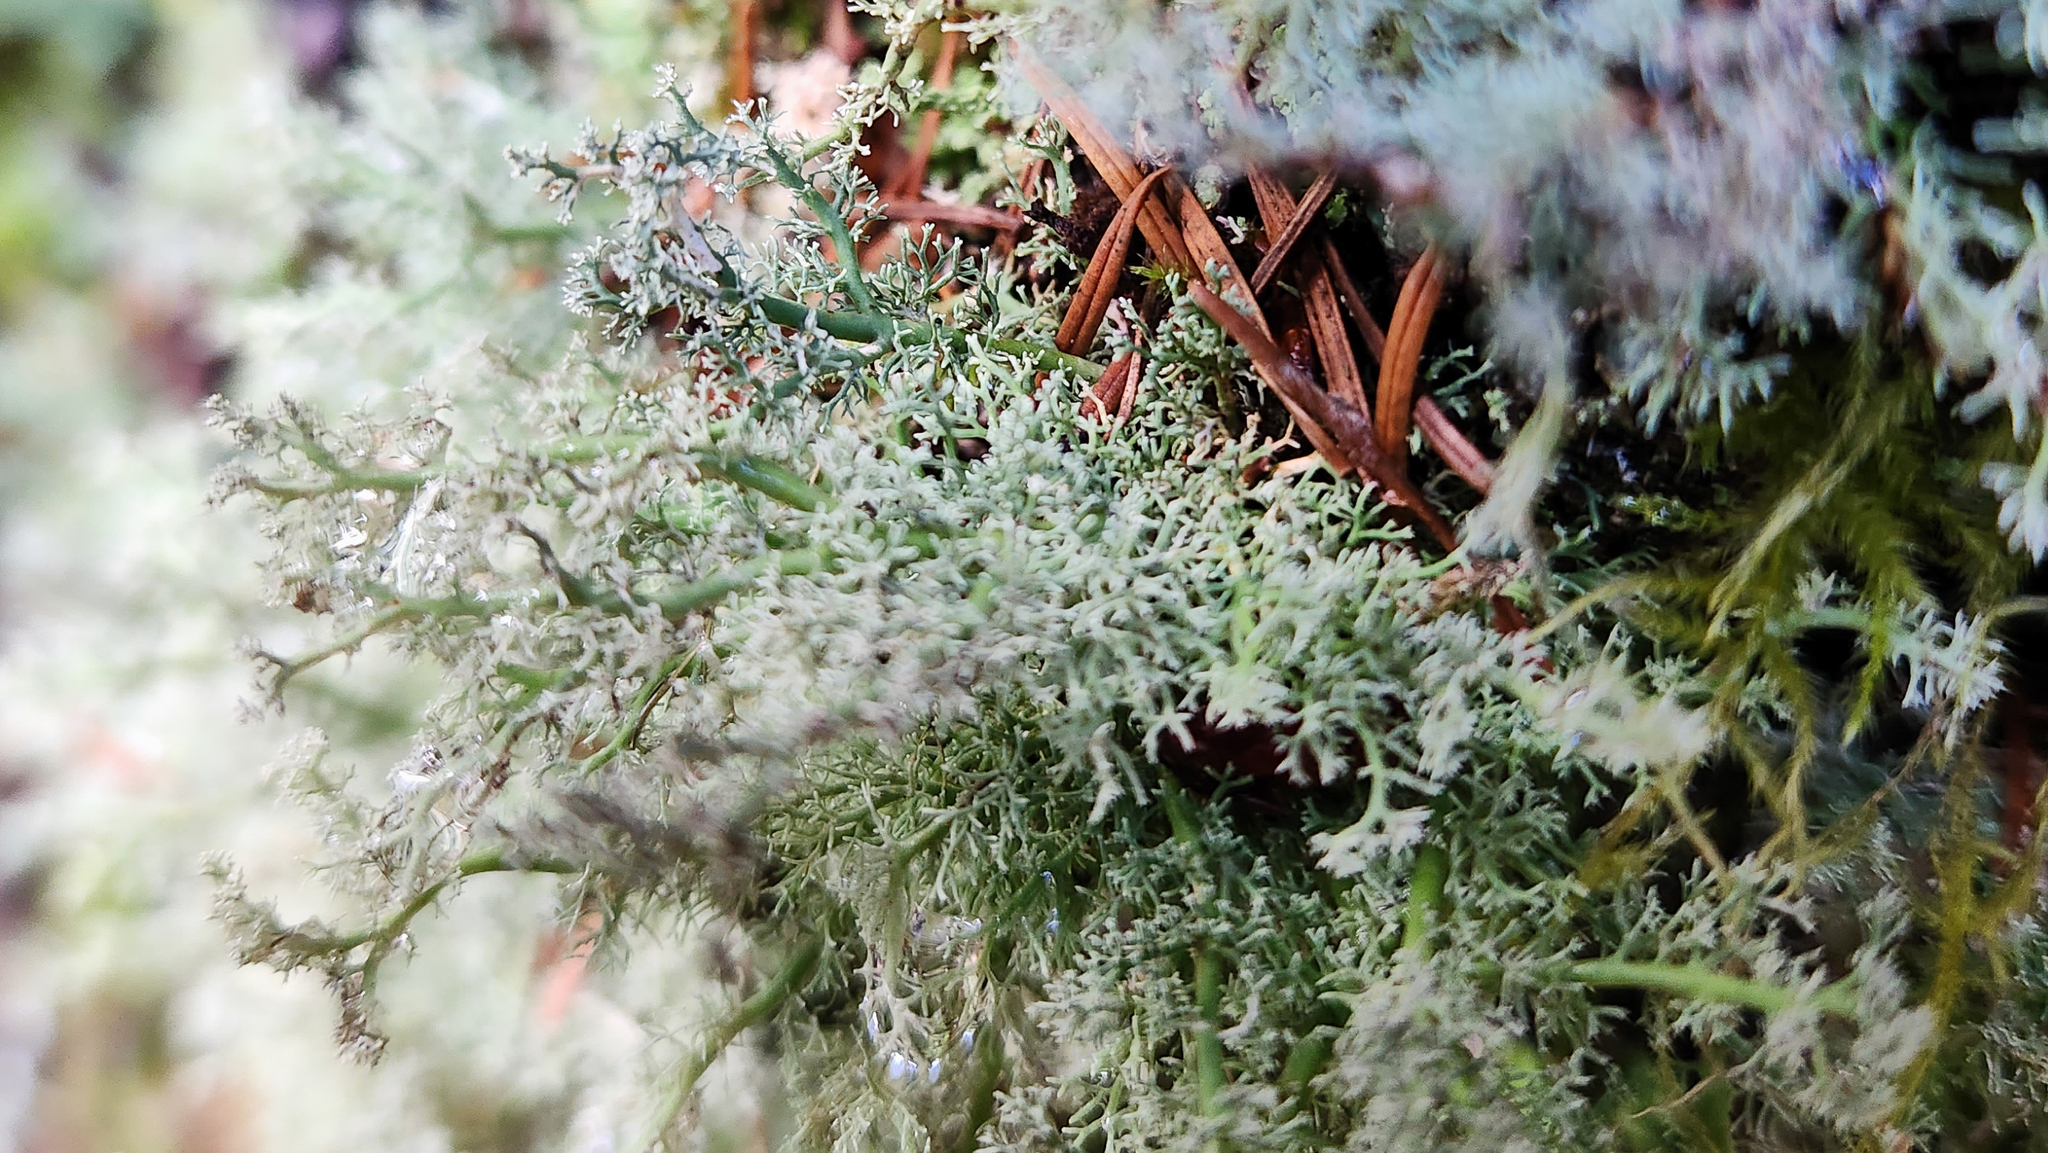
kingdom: Fungi
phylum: Ascomycota
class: Lecanoromycetes
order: Lecanorales
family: Sphaerophoraceae
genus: Sphaerophorus
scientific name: Sphaerophorus globosus
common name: Globe ball lichen
